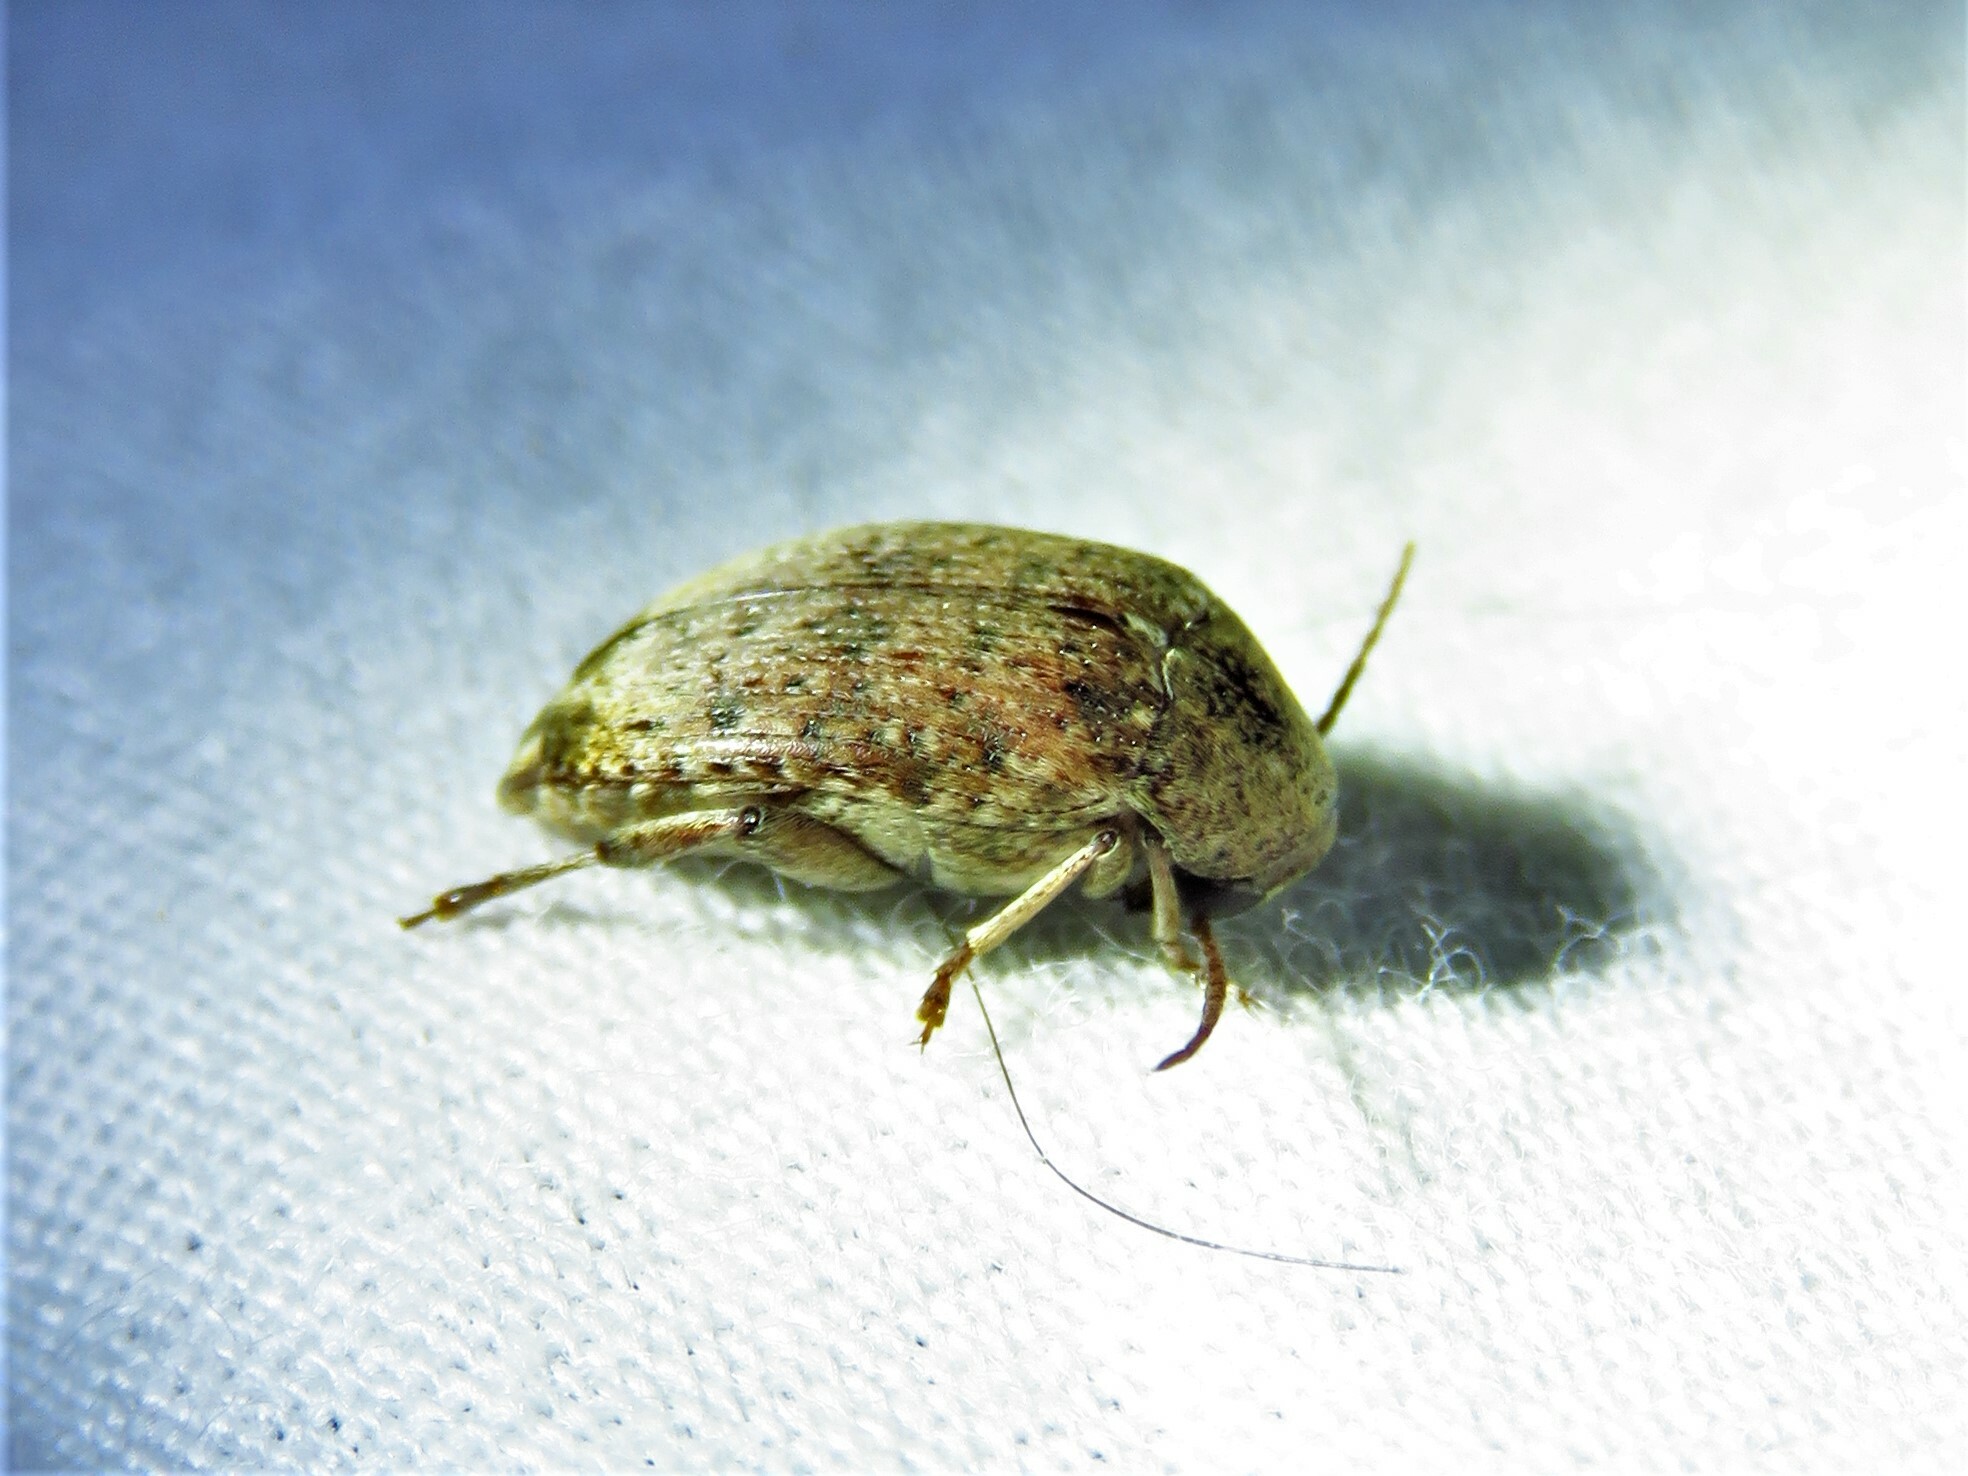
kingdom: Animalia
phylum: Arthropoda
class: Insecta
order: Coleoptera
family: Chrysomelidae
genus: Amblycerus
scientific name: Amblycerus robiniae
